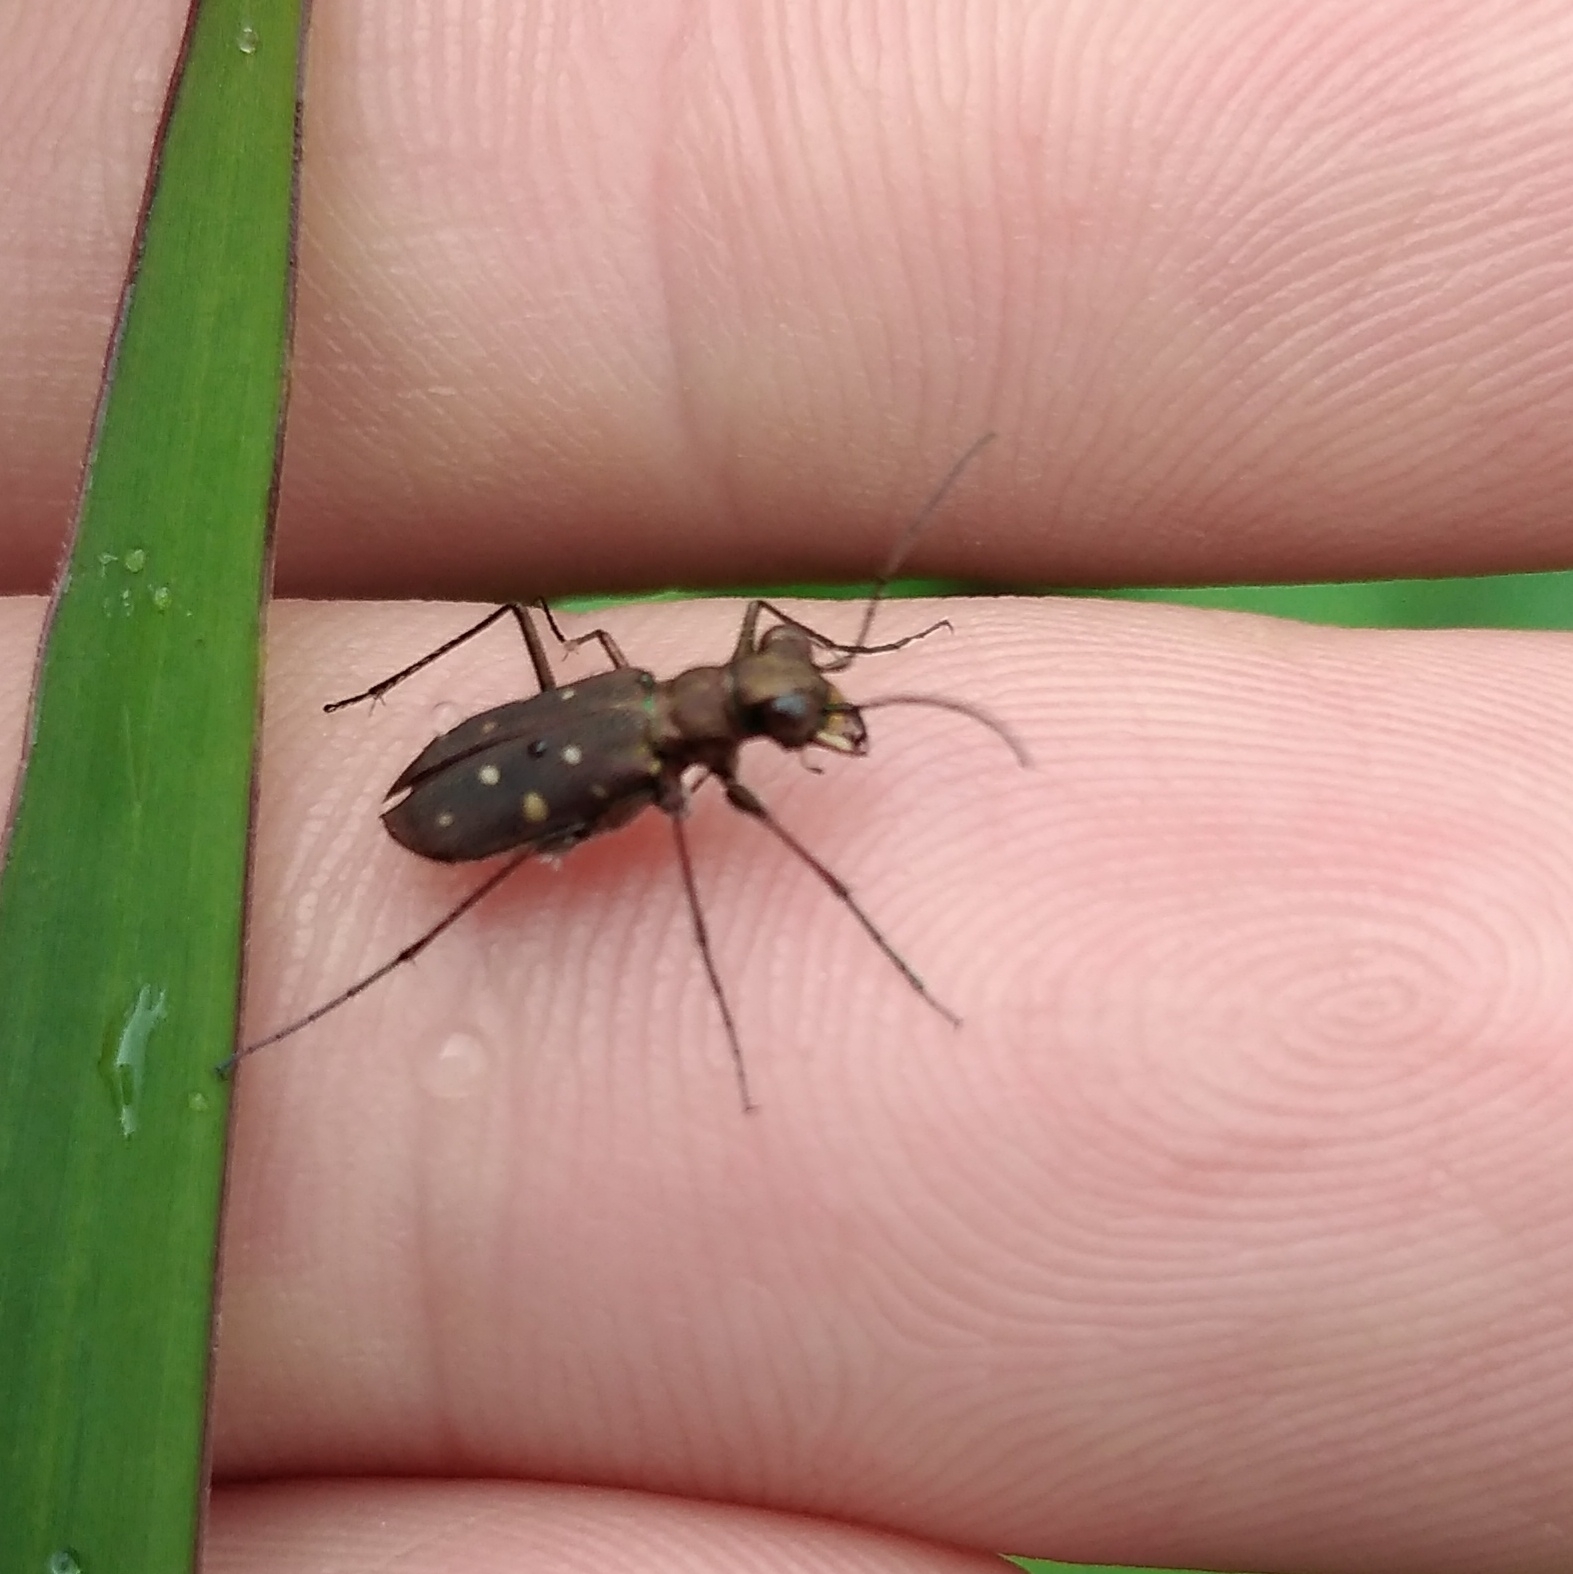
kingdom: Animalia
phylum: Arthropoda
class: Insecta
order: Coleoptera
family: Carabidae
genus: Cylindera
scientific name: Cylindera disjuncta
